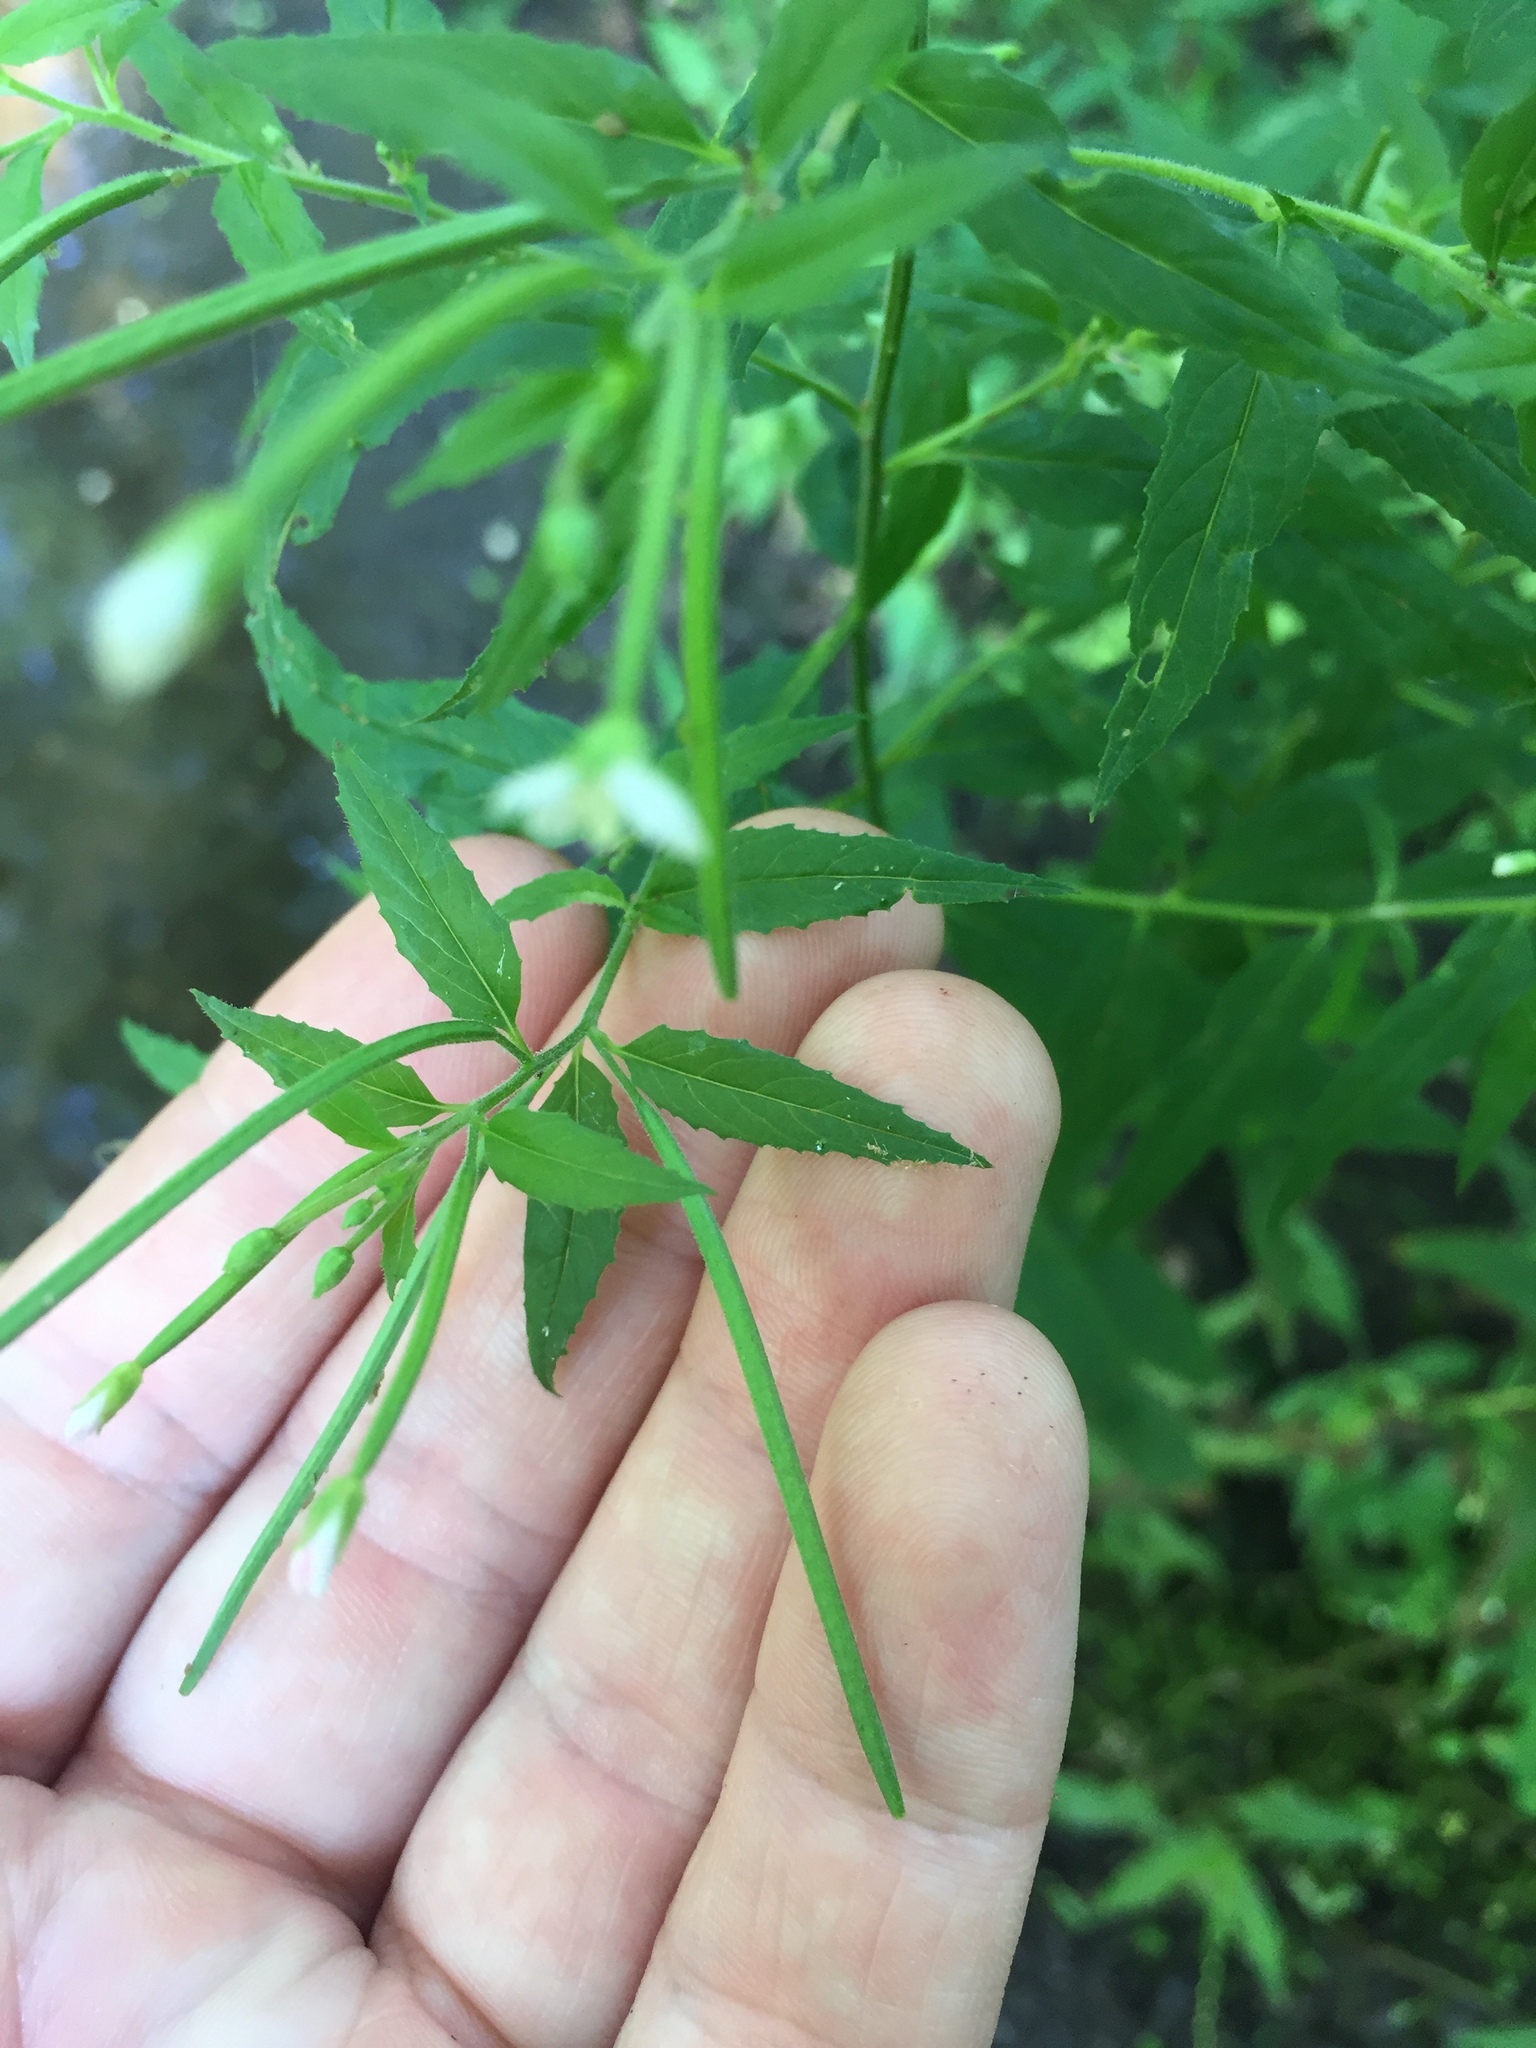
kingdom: Plantae
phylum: Tracheophyta
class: Magnoliopsida
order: Myrtales
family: Onagraceae
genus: Epilobium
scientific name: Epilobium ciliatum
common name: American willowherb
